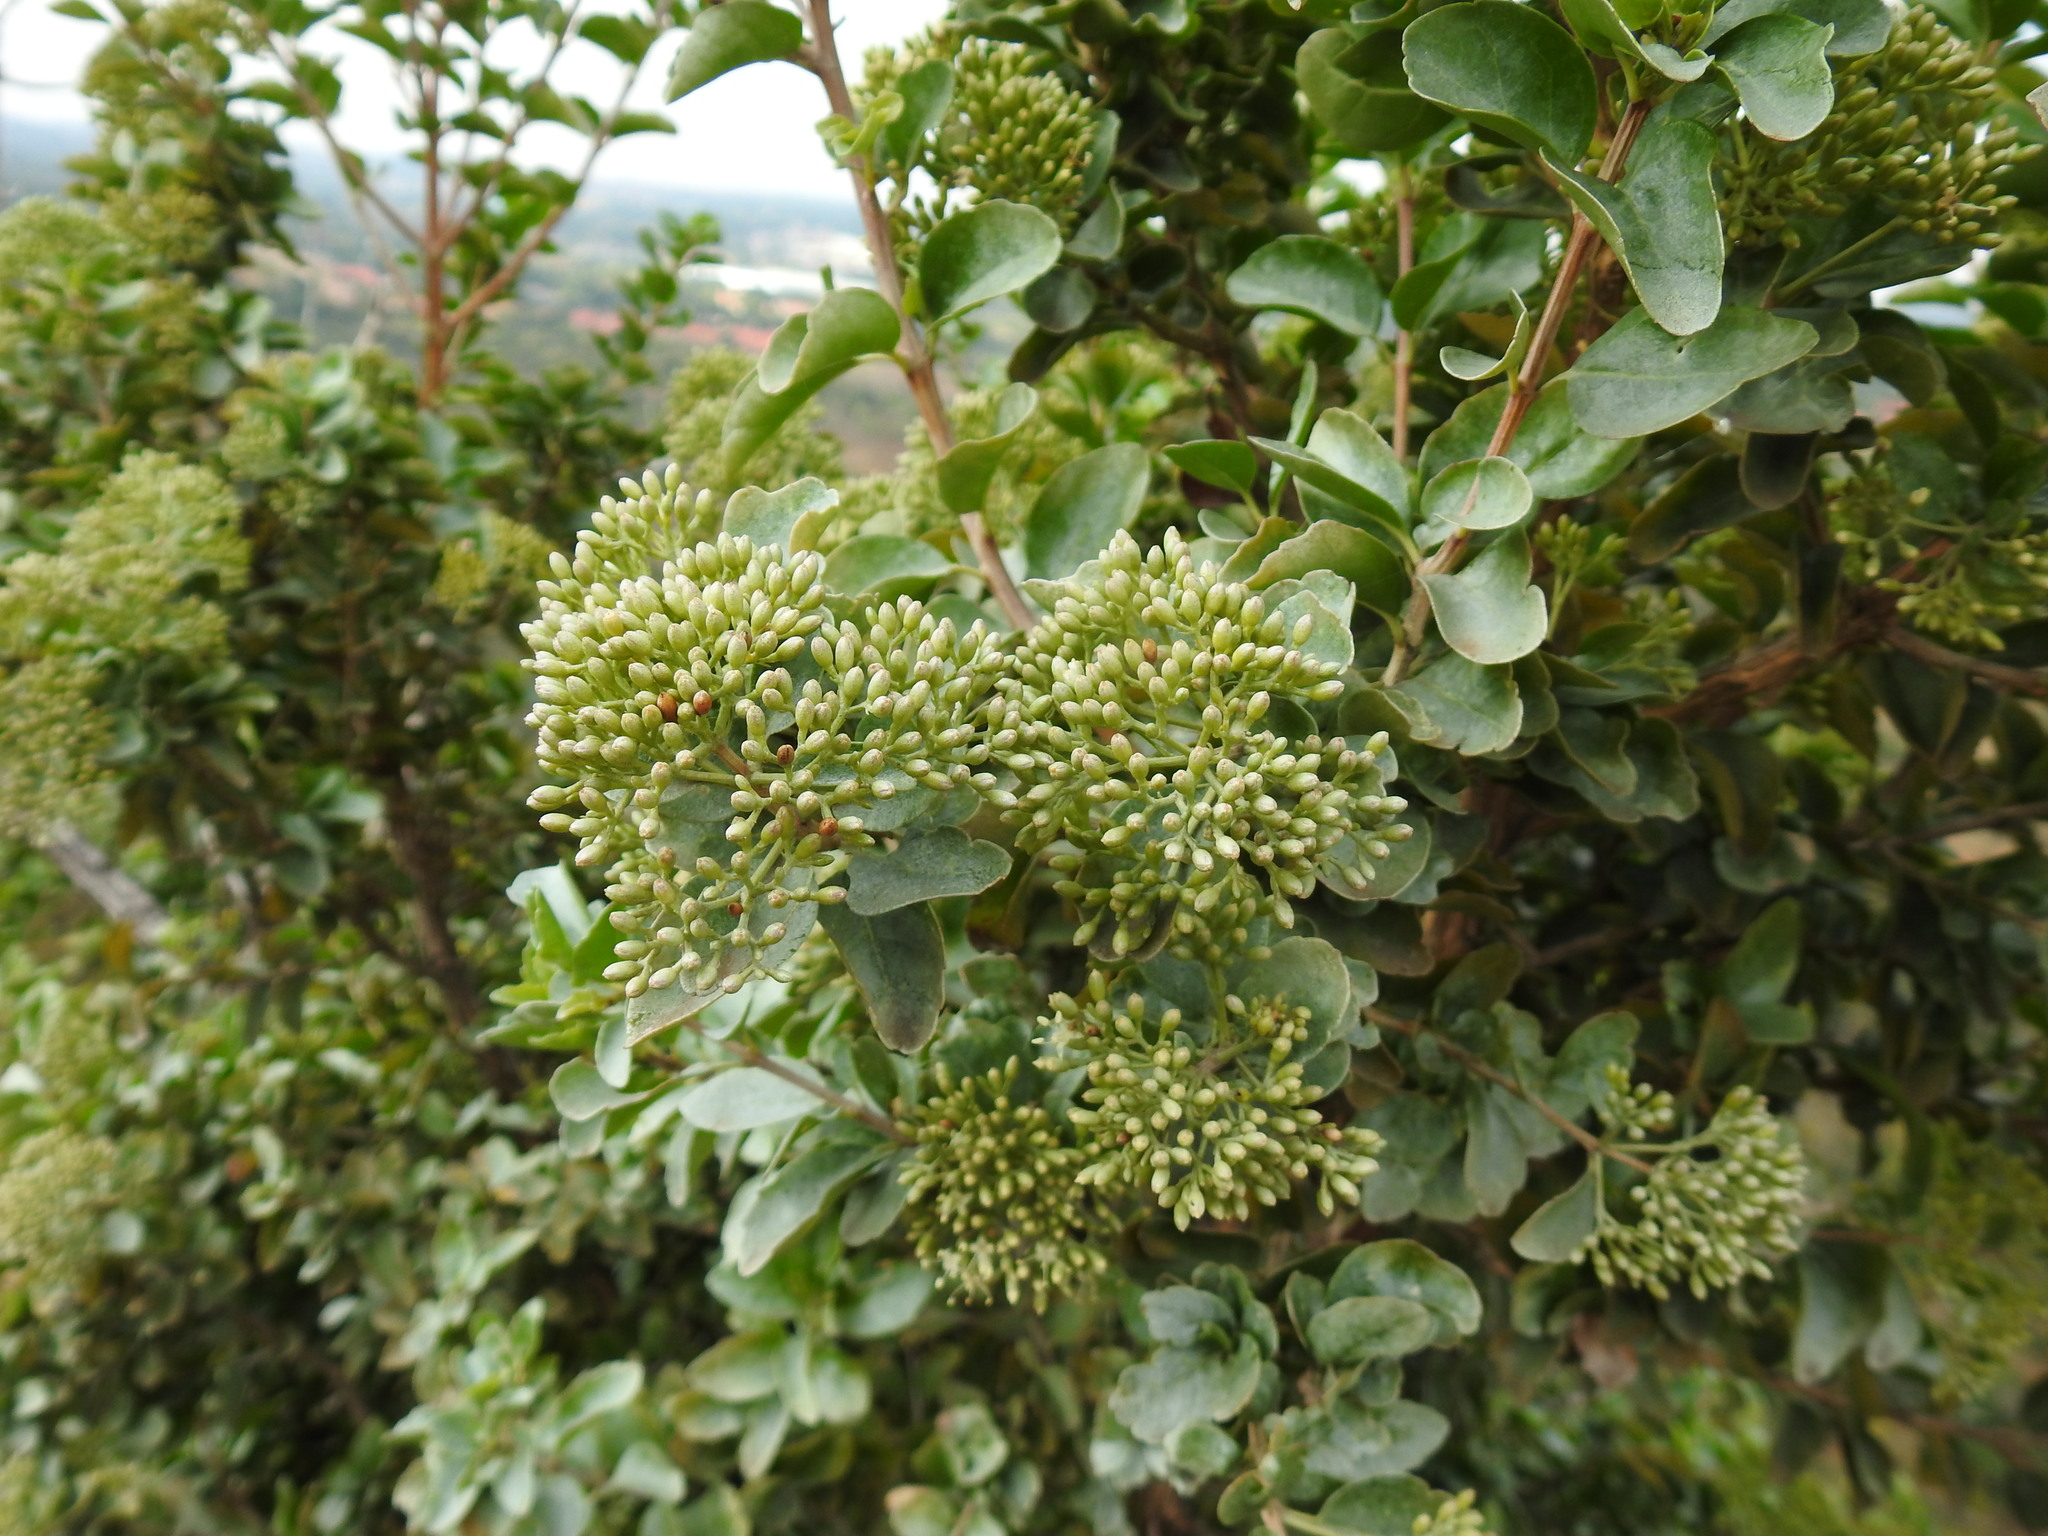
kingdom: Plantae
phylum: Tracheophyta
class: Magnoliopsida
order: Lamiales
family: Stilbaceae
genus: Nuxia
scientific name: Nuxia congesta
